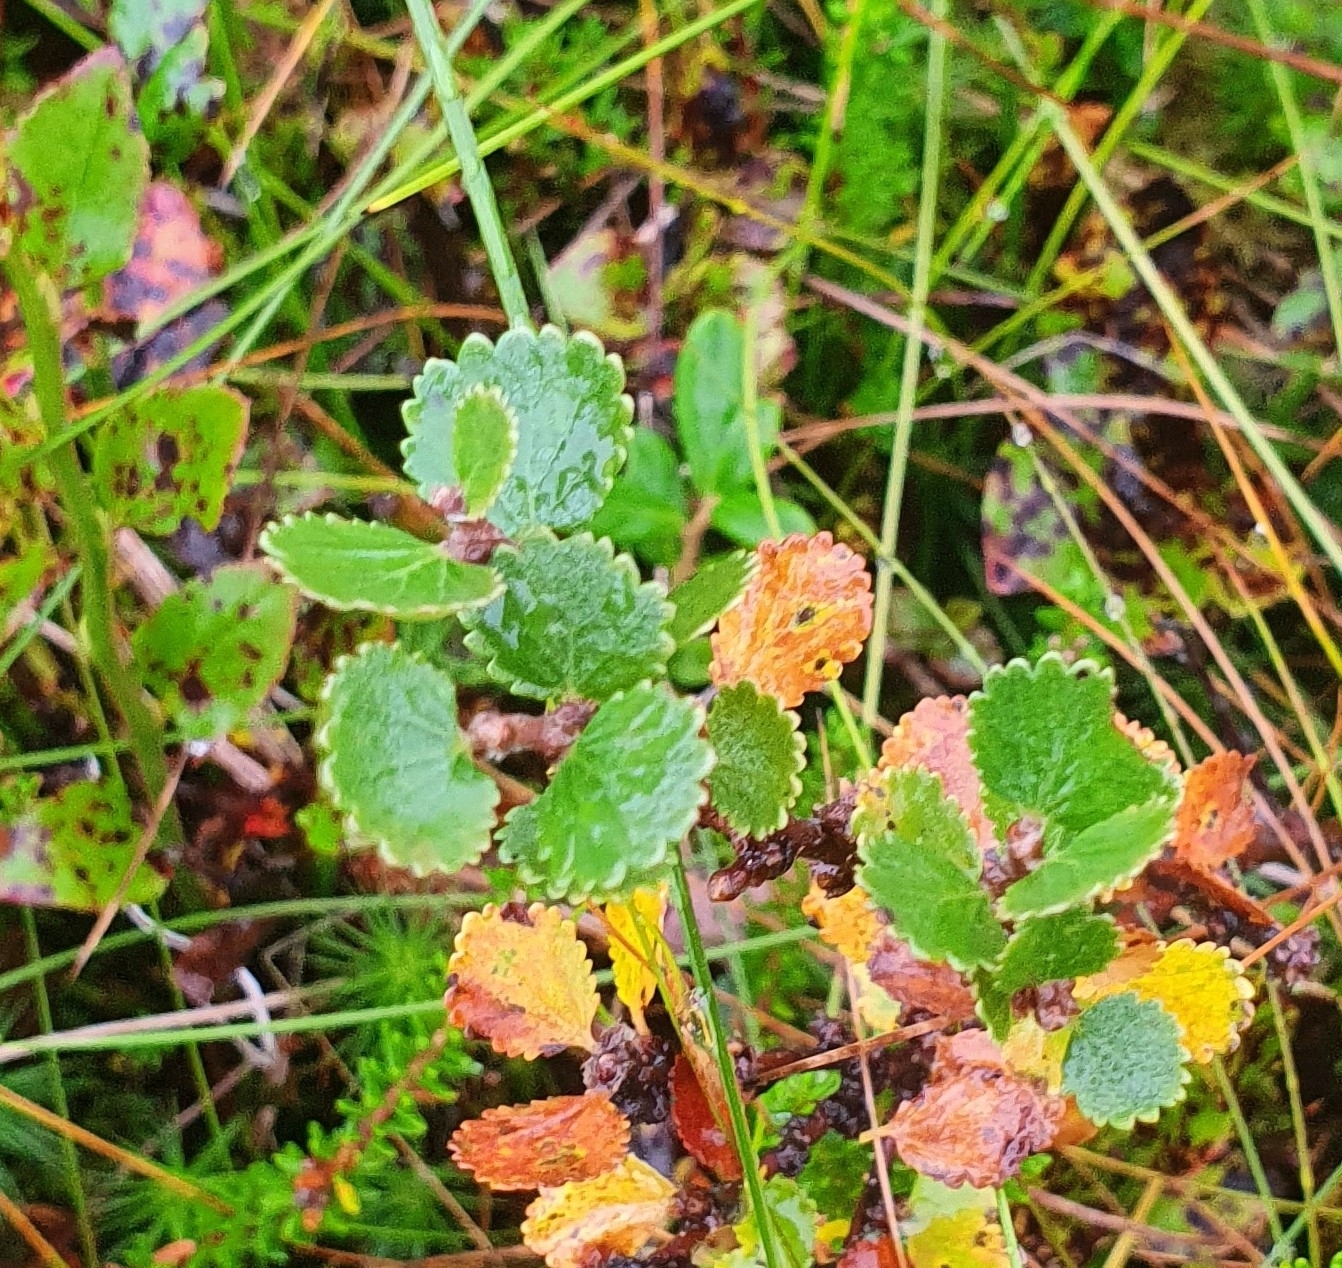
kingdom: Plantae
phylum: Tracheophyta
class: Magnoliopsida
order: Fagales
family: Betulaceae
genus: Betula
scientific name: Betula nana
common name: Arctic dwarf birch
